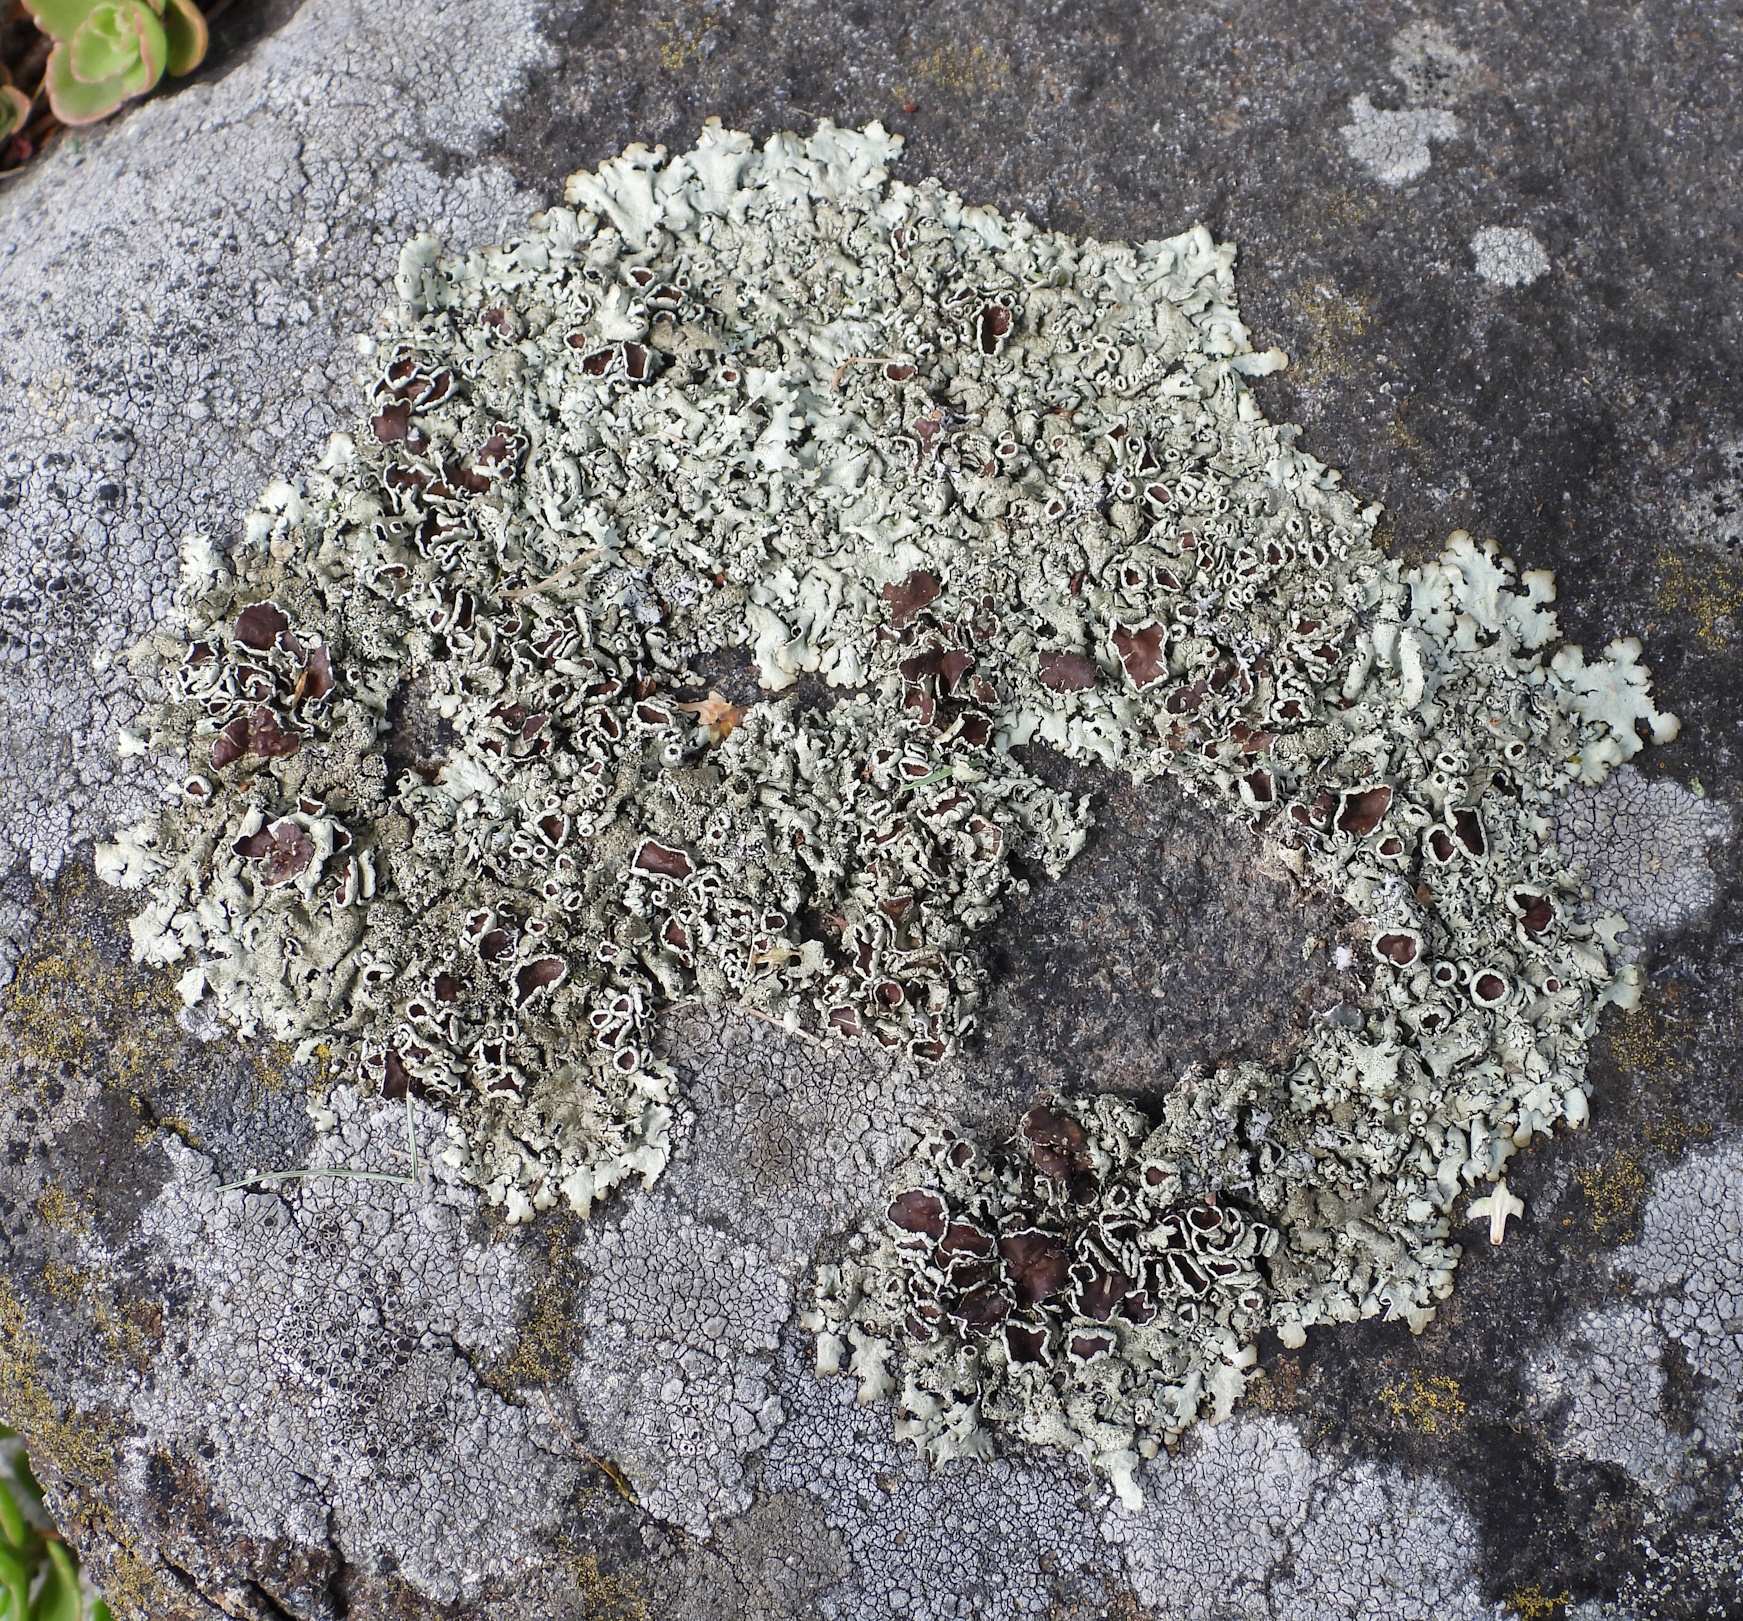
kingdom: Fungi
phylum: Ascomycota
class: Lecanoromycetes
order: Lecanorales
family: Parmeliaceae
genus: Xanthoparmelia
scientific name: Xanthoparmelia conspersa
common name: Peppered rock shield
